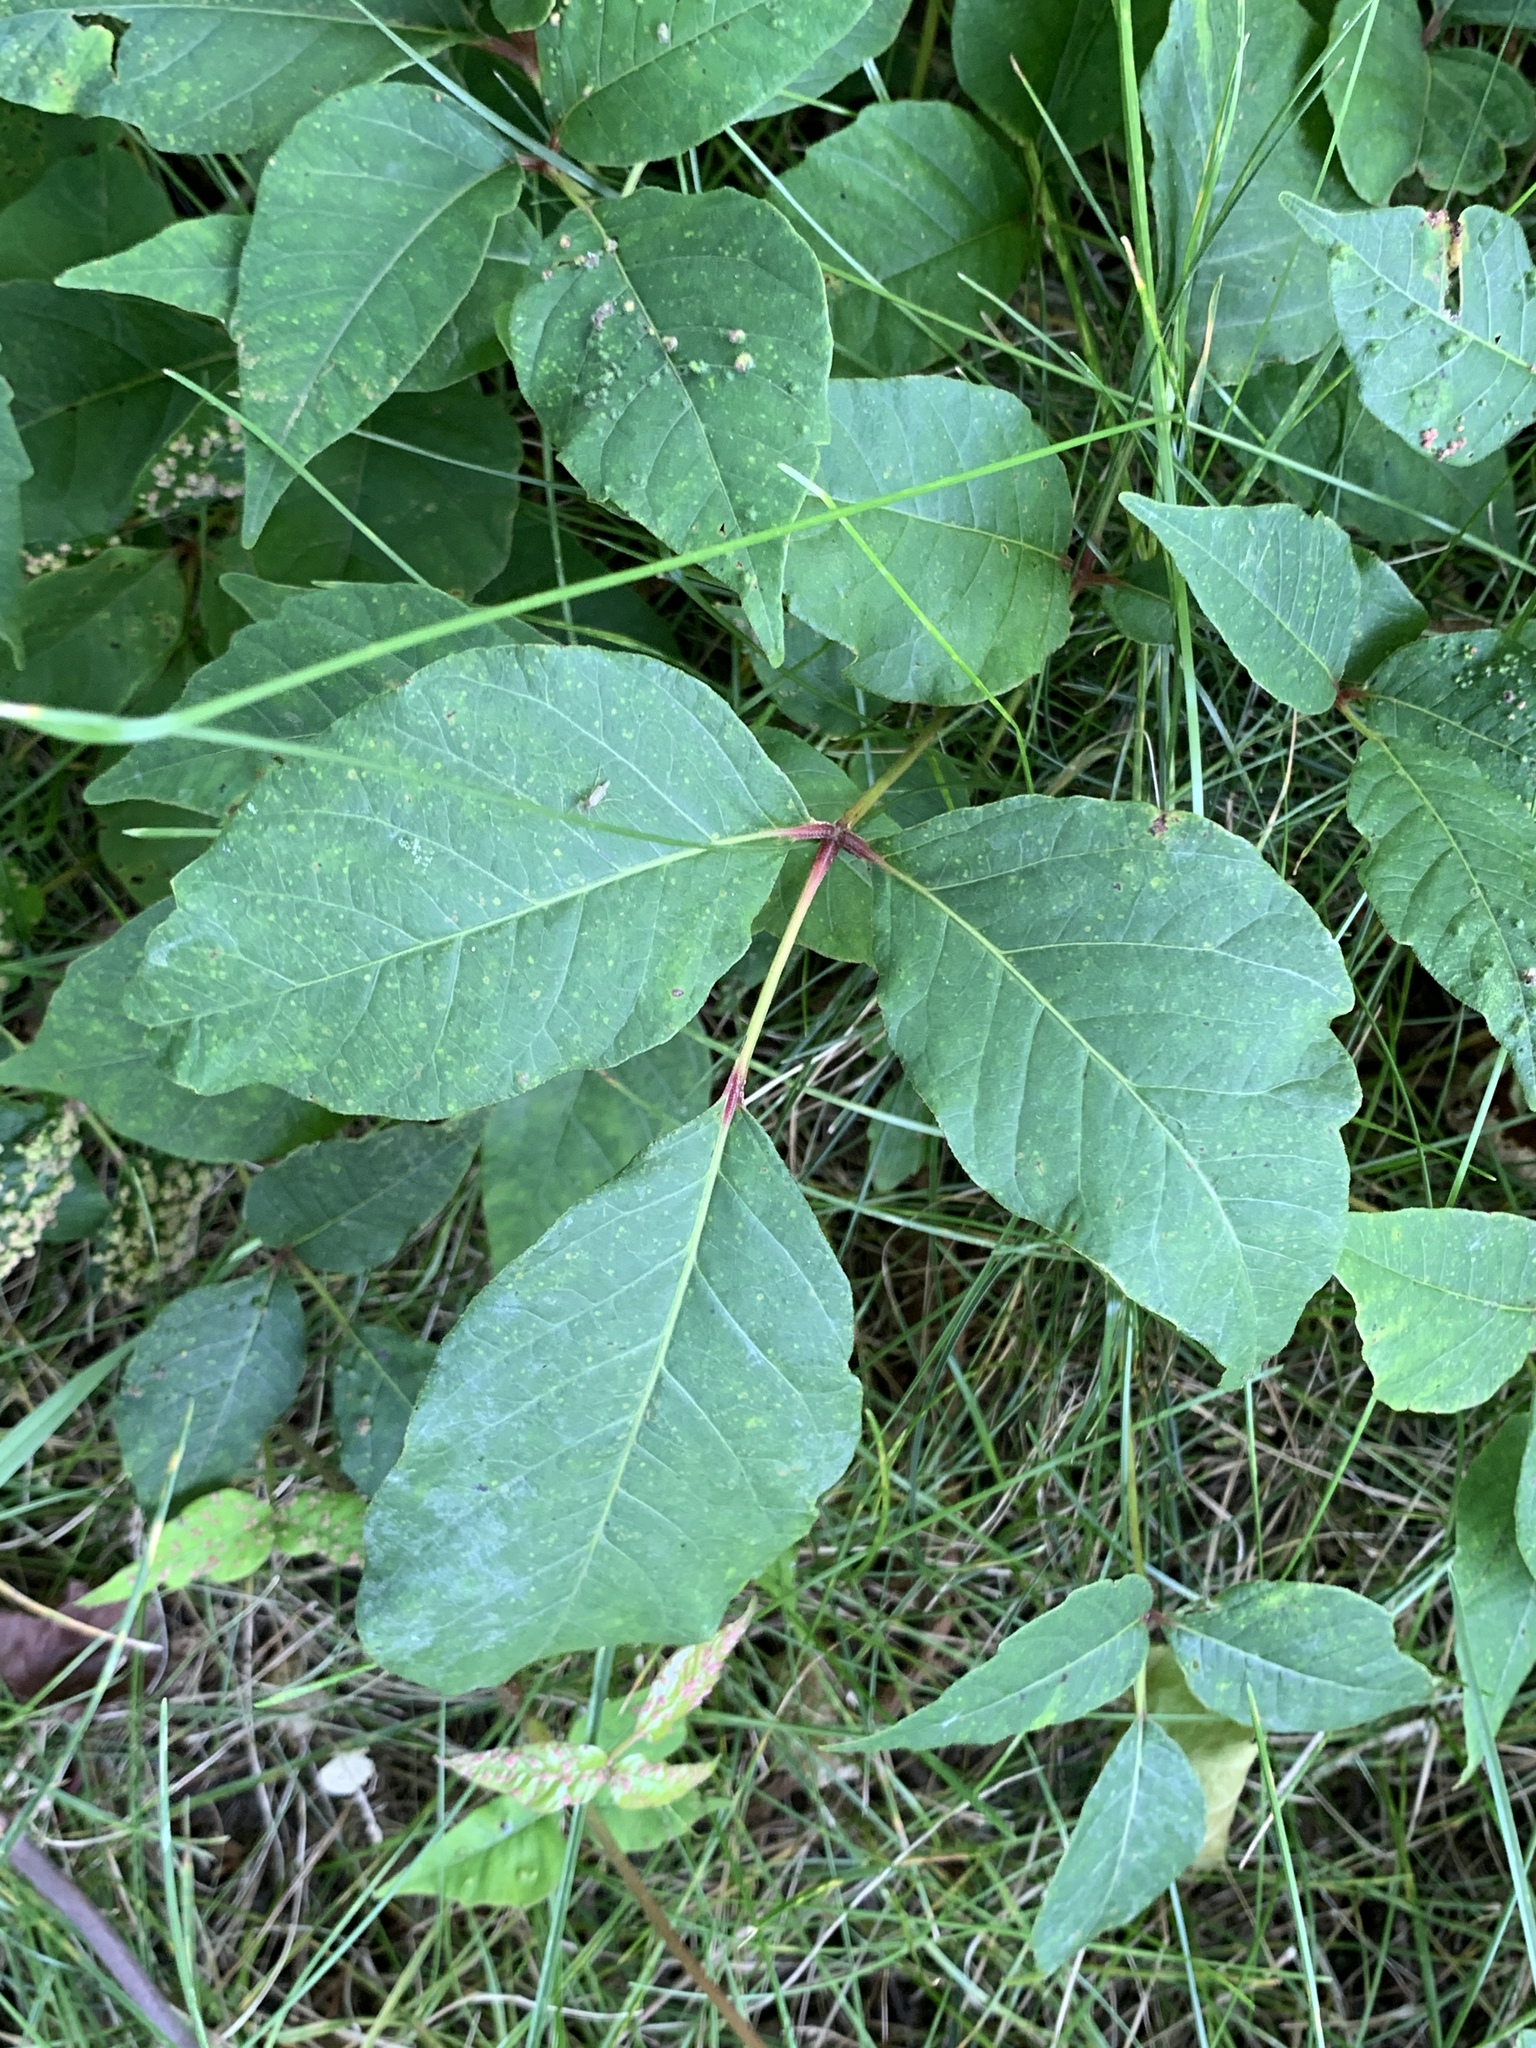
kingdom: Plantae
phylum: Tracheophyta
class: Magnoliopsida
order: Sapindales
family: Anacardiaceae
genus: Toxicodendron
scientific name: Toxicodendron radicans
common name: Poison ivy
